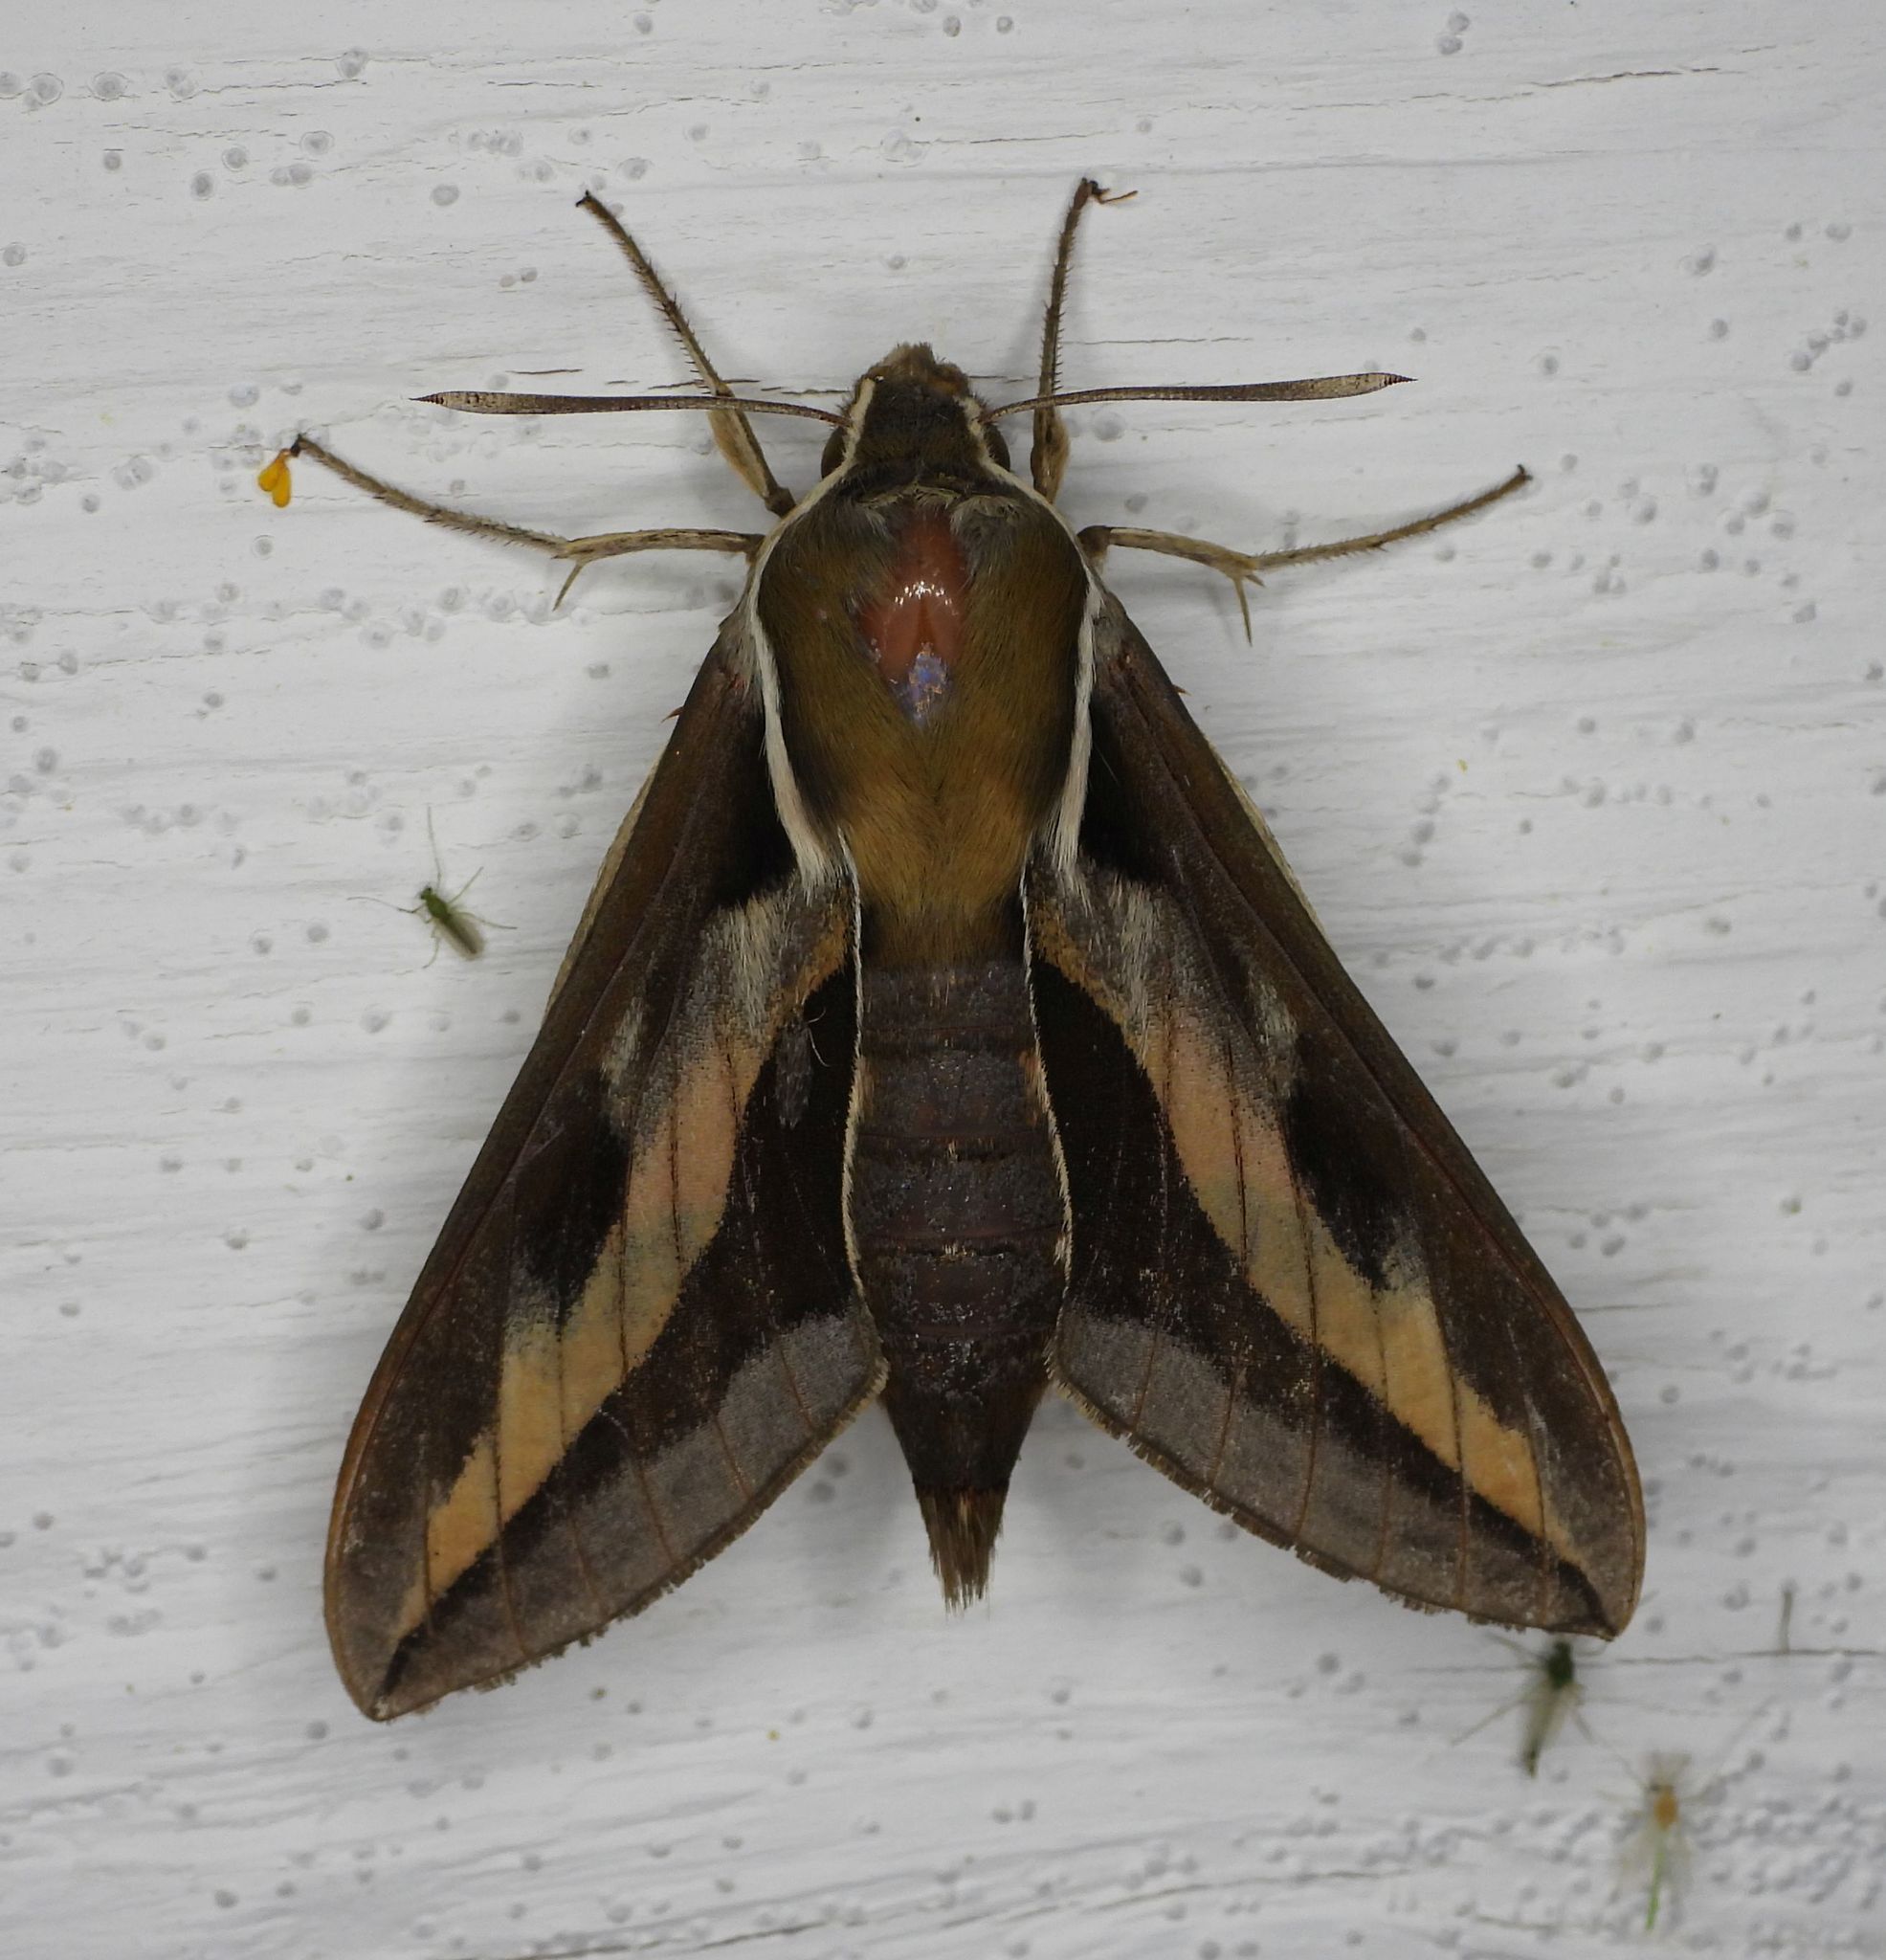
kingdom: Animalia
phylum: Arthropoda
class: Insecta
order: Lepidoptera
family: Sphingidae
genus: Hyles
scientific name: Hyles gallii
